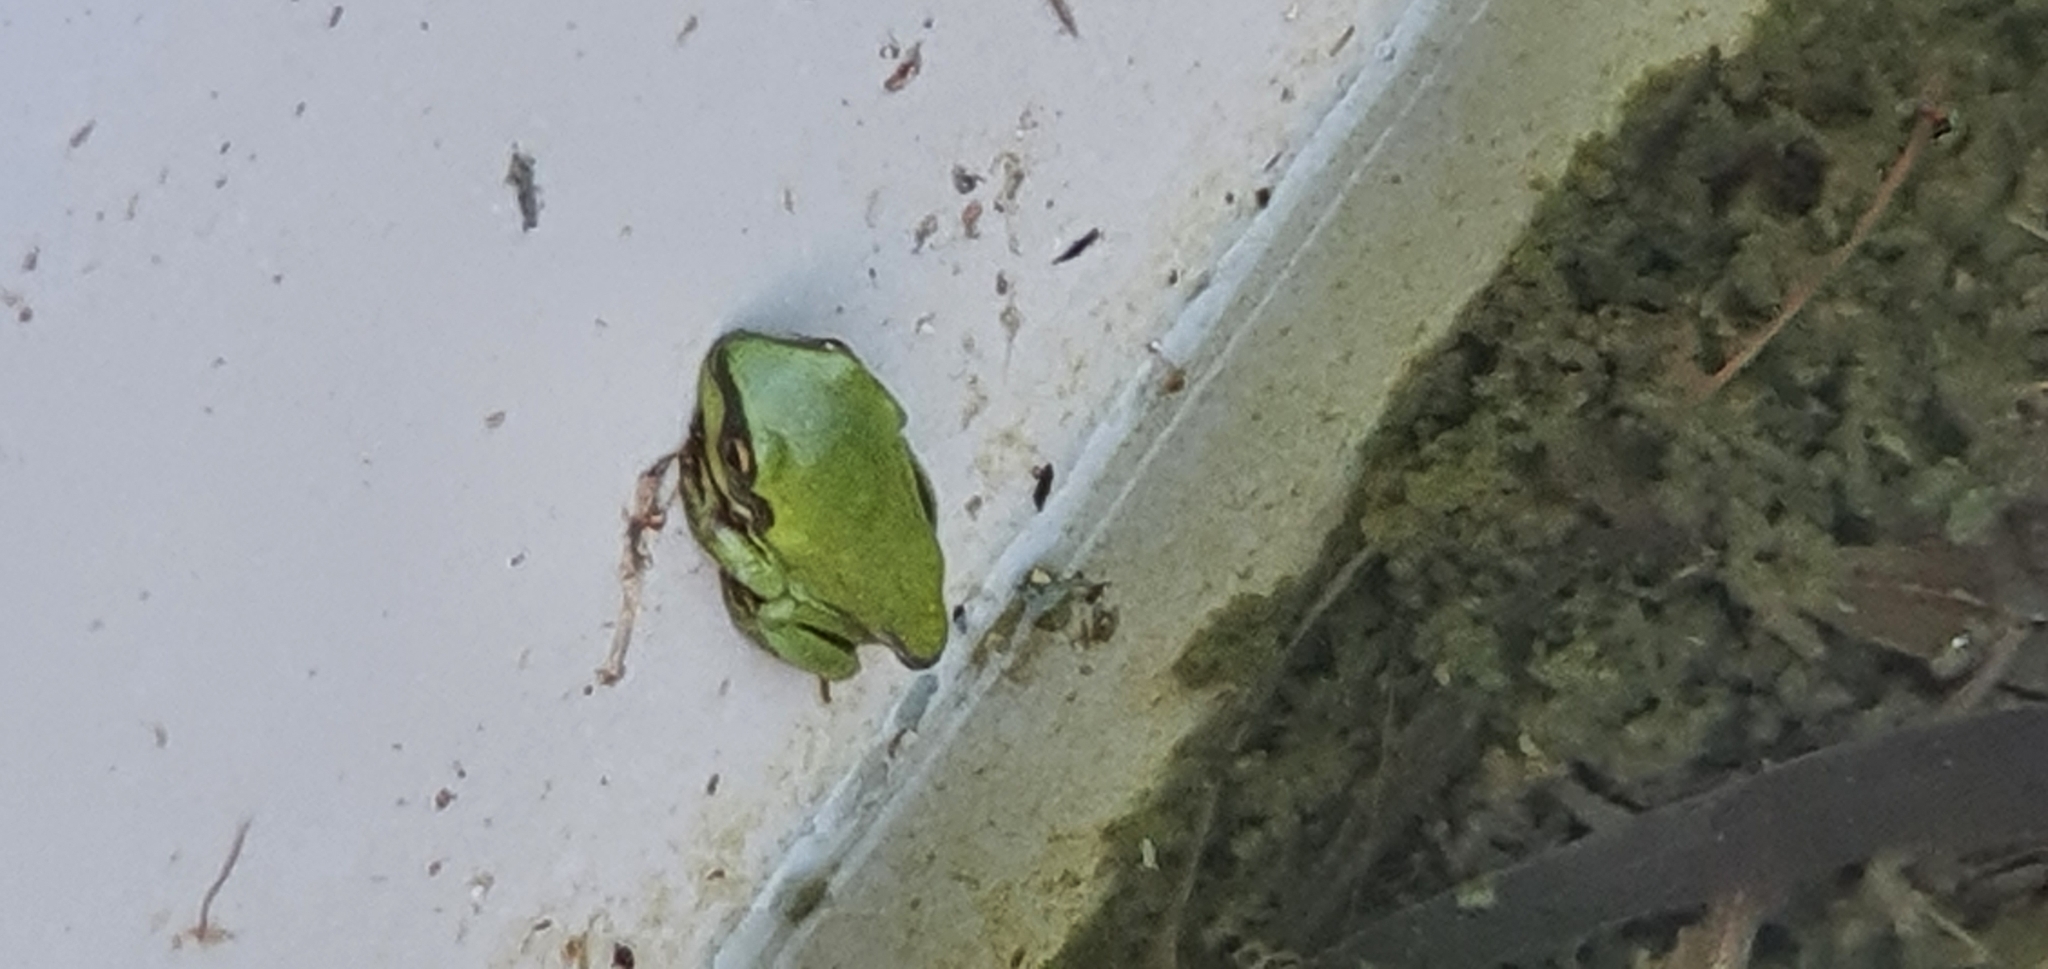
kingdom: Animalia
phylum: Chordata
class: Amphibia
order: Anura
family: Pelodryadidae
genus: Ranoidea
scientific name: Ranoidea caerulea
